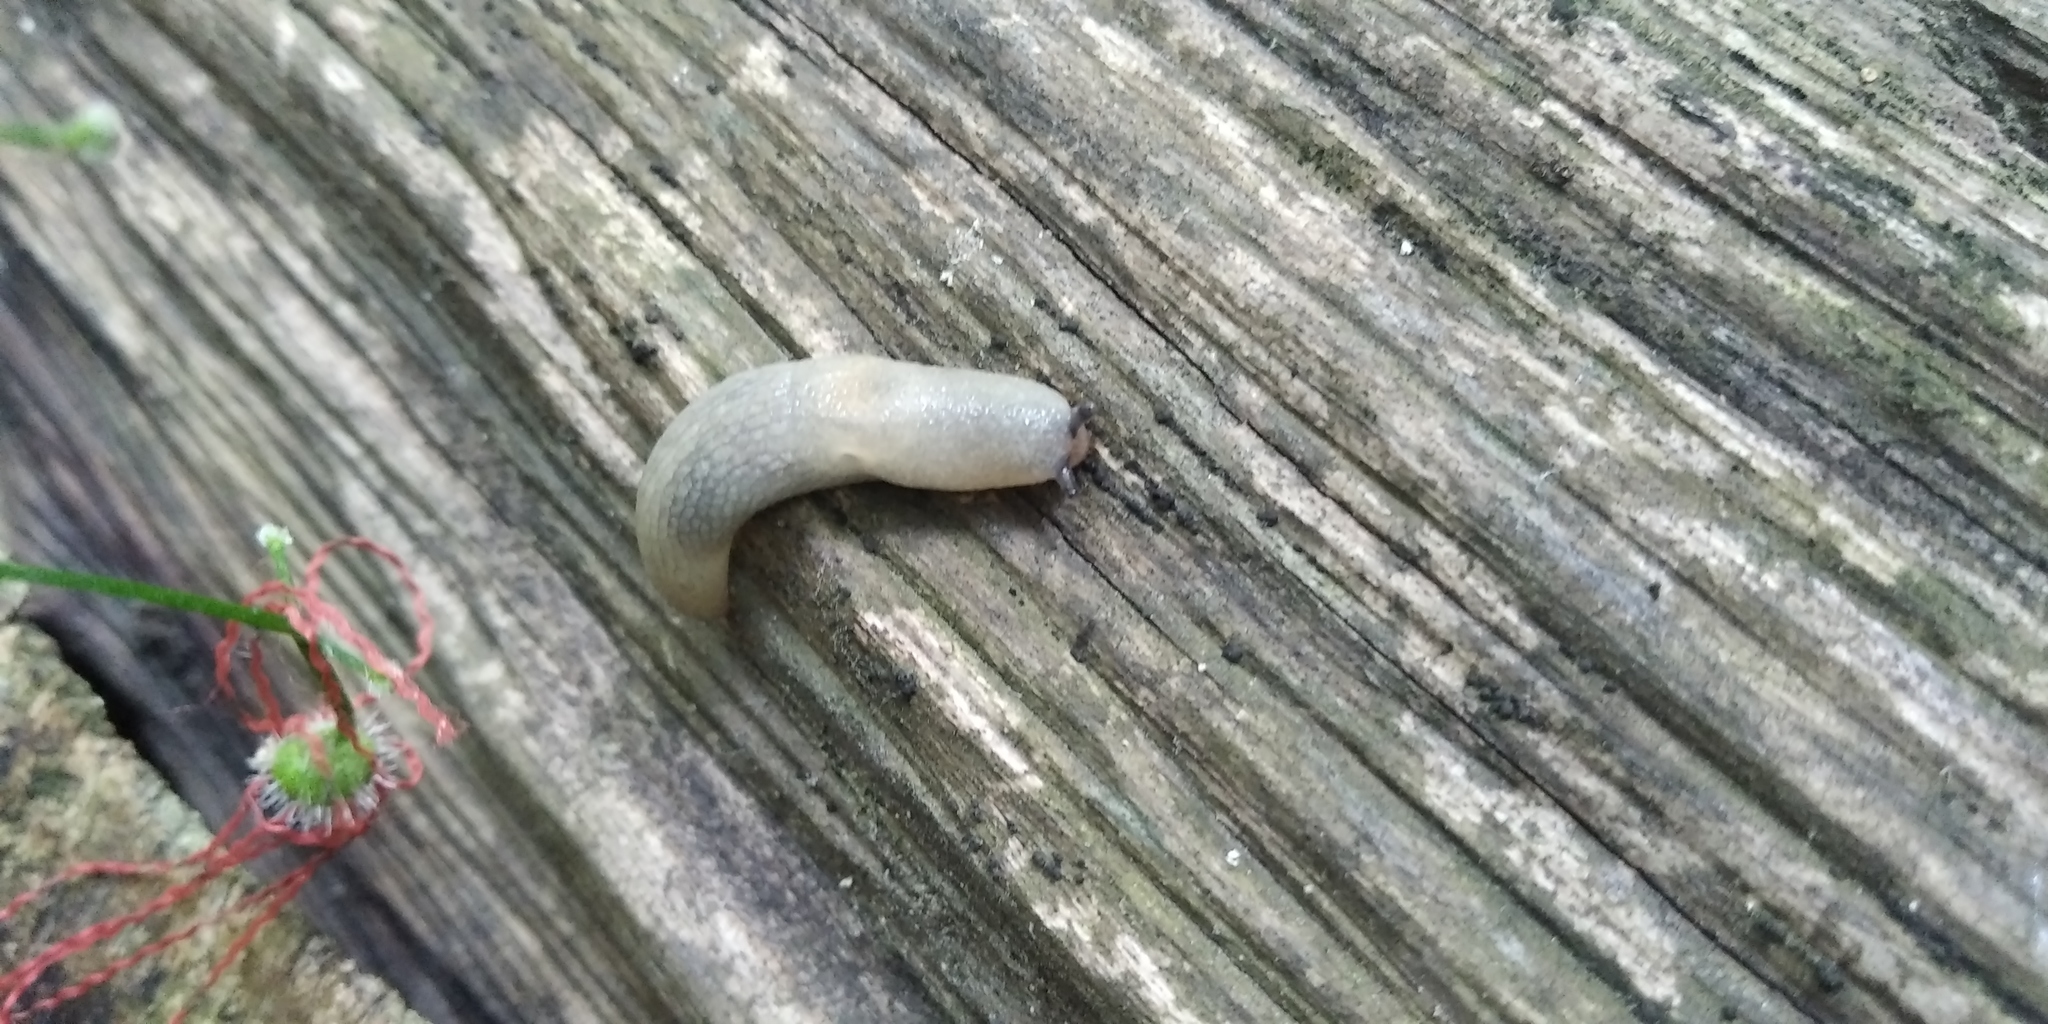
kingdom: Animalia
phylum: Mollusca
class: Gastropoda
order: Stylommatophora
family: Agriolimacidae
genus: Krynickillus
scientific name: Krynickillus melanocephalus
